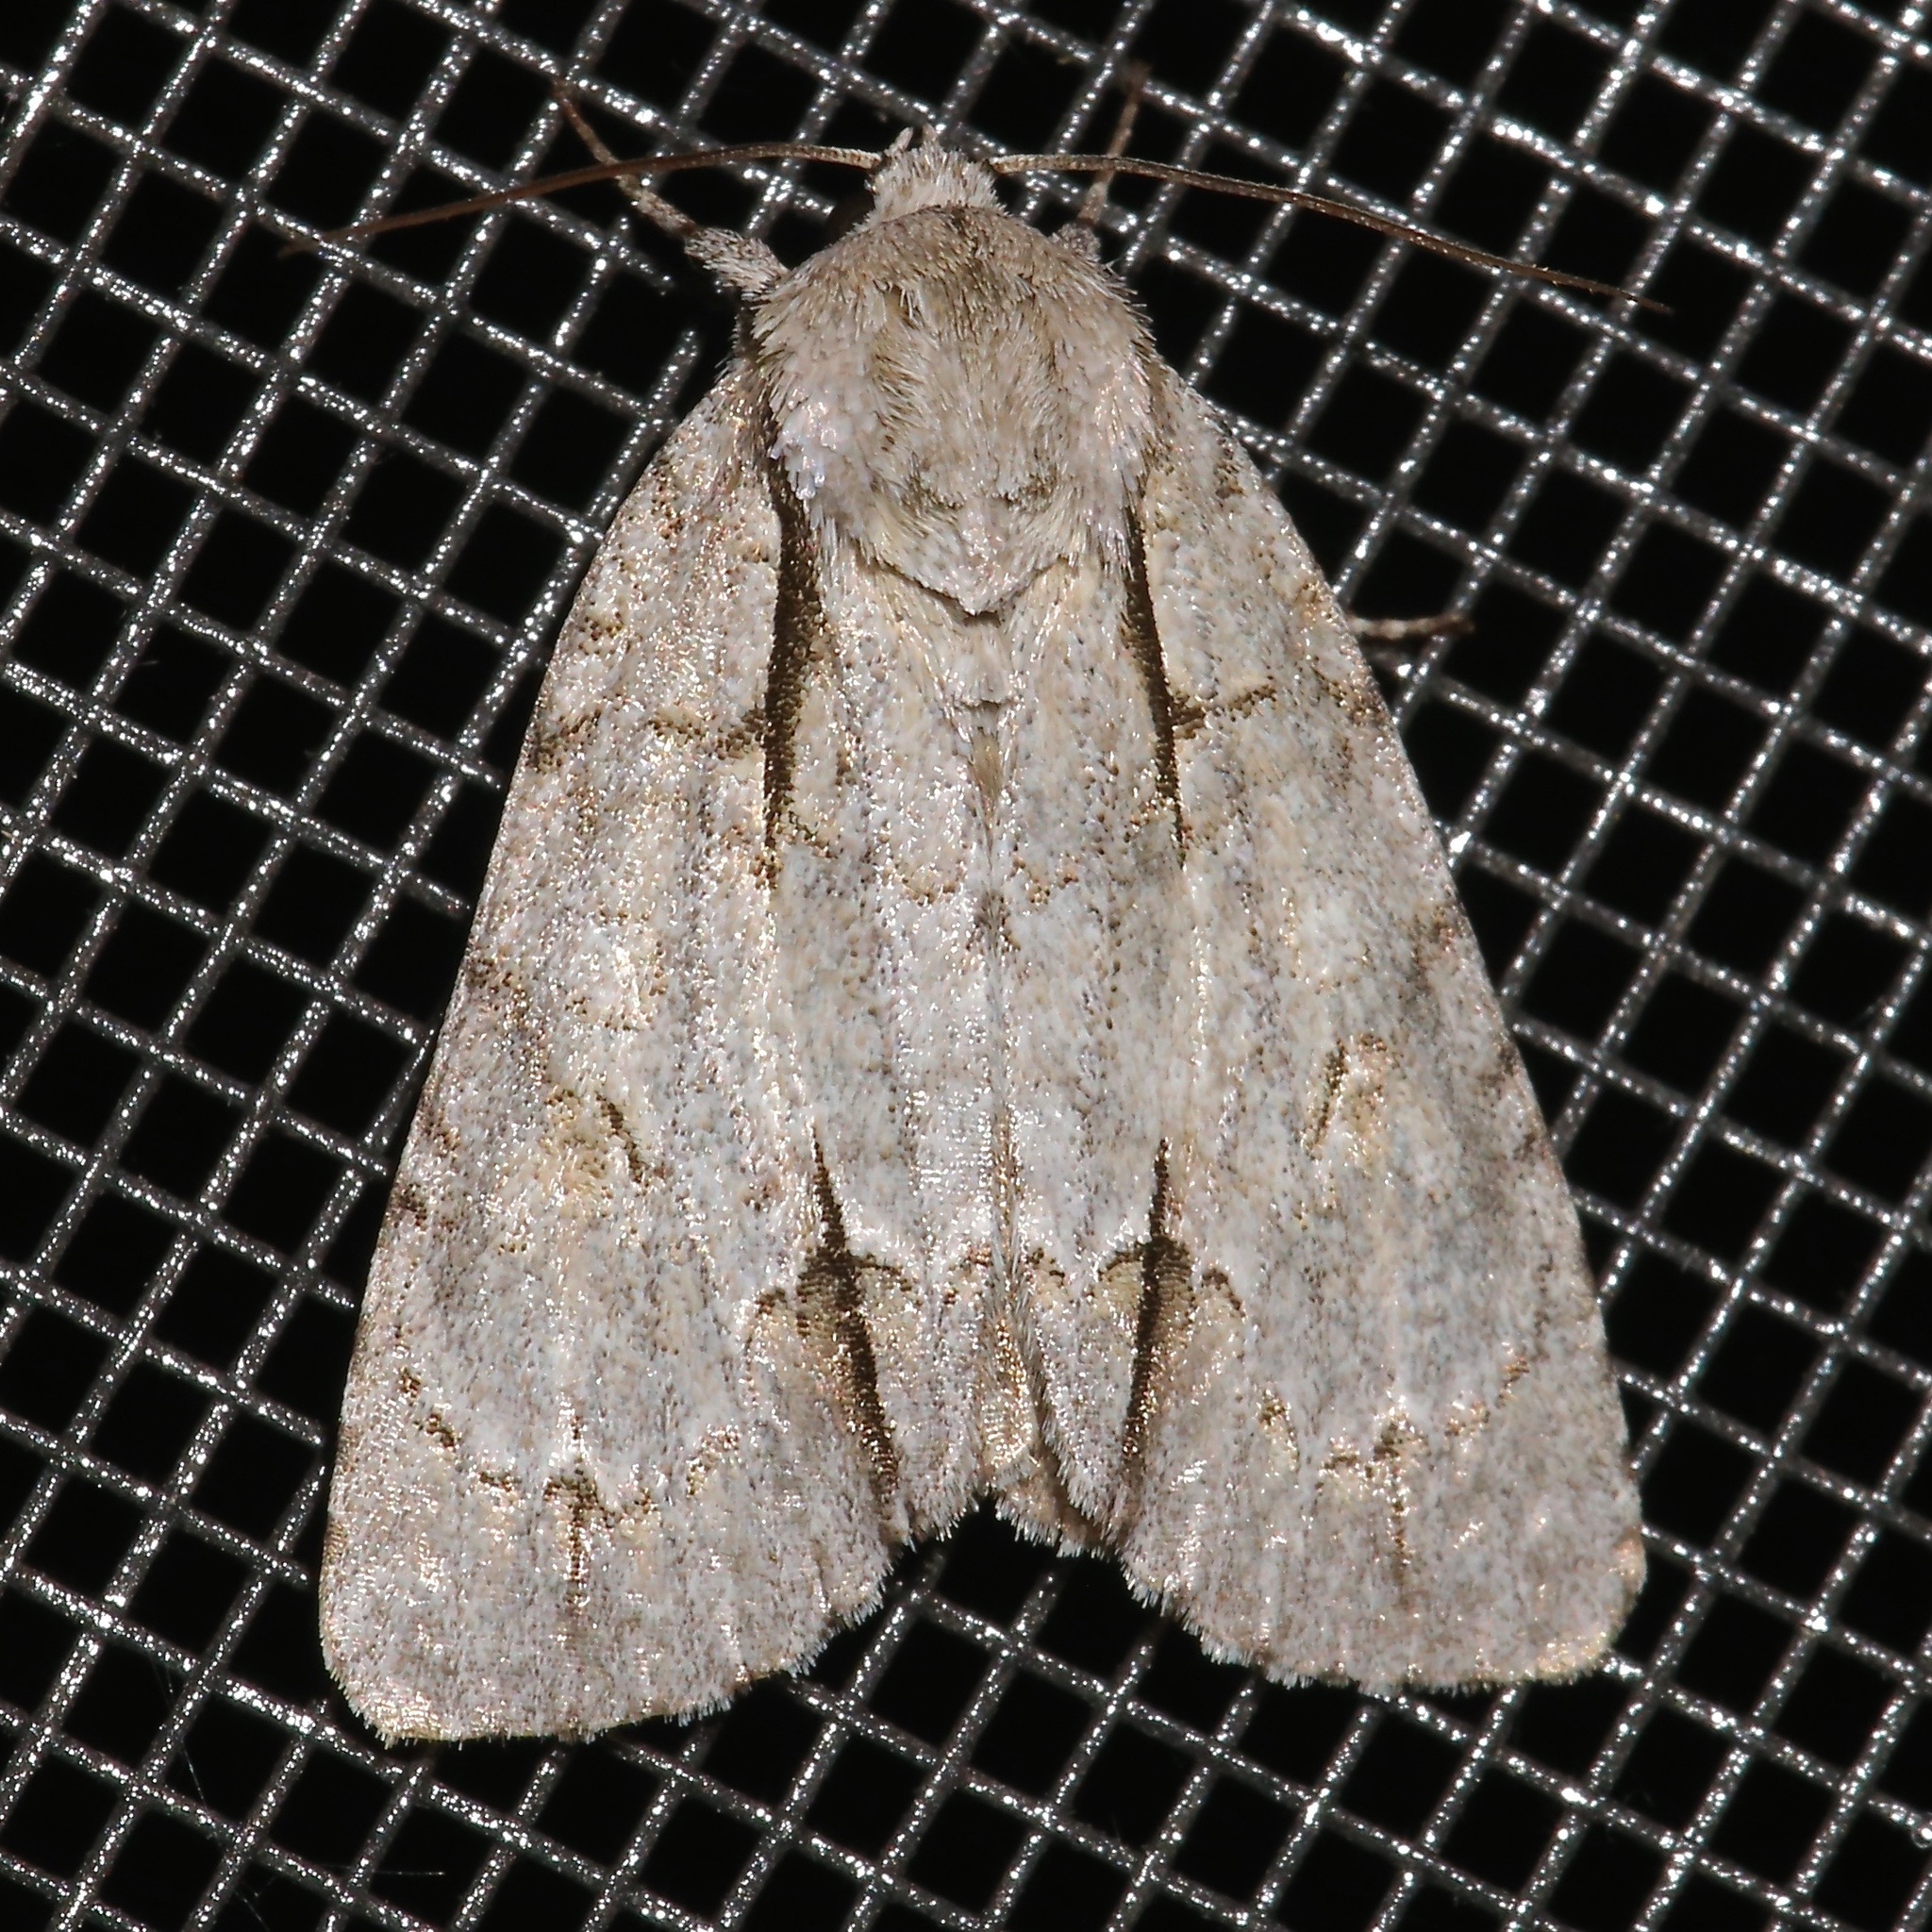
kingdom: Animalia
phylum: Arthropoda
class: Insecta
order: Lepidoptera
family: Noctuidae
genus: Acronicta
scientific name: Acronicta interrupta
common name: Interrupted dagger
